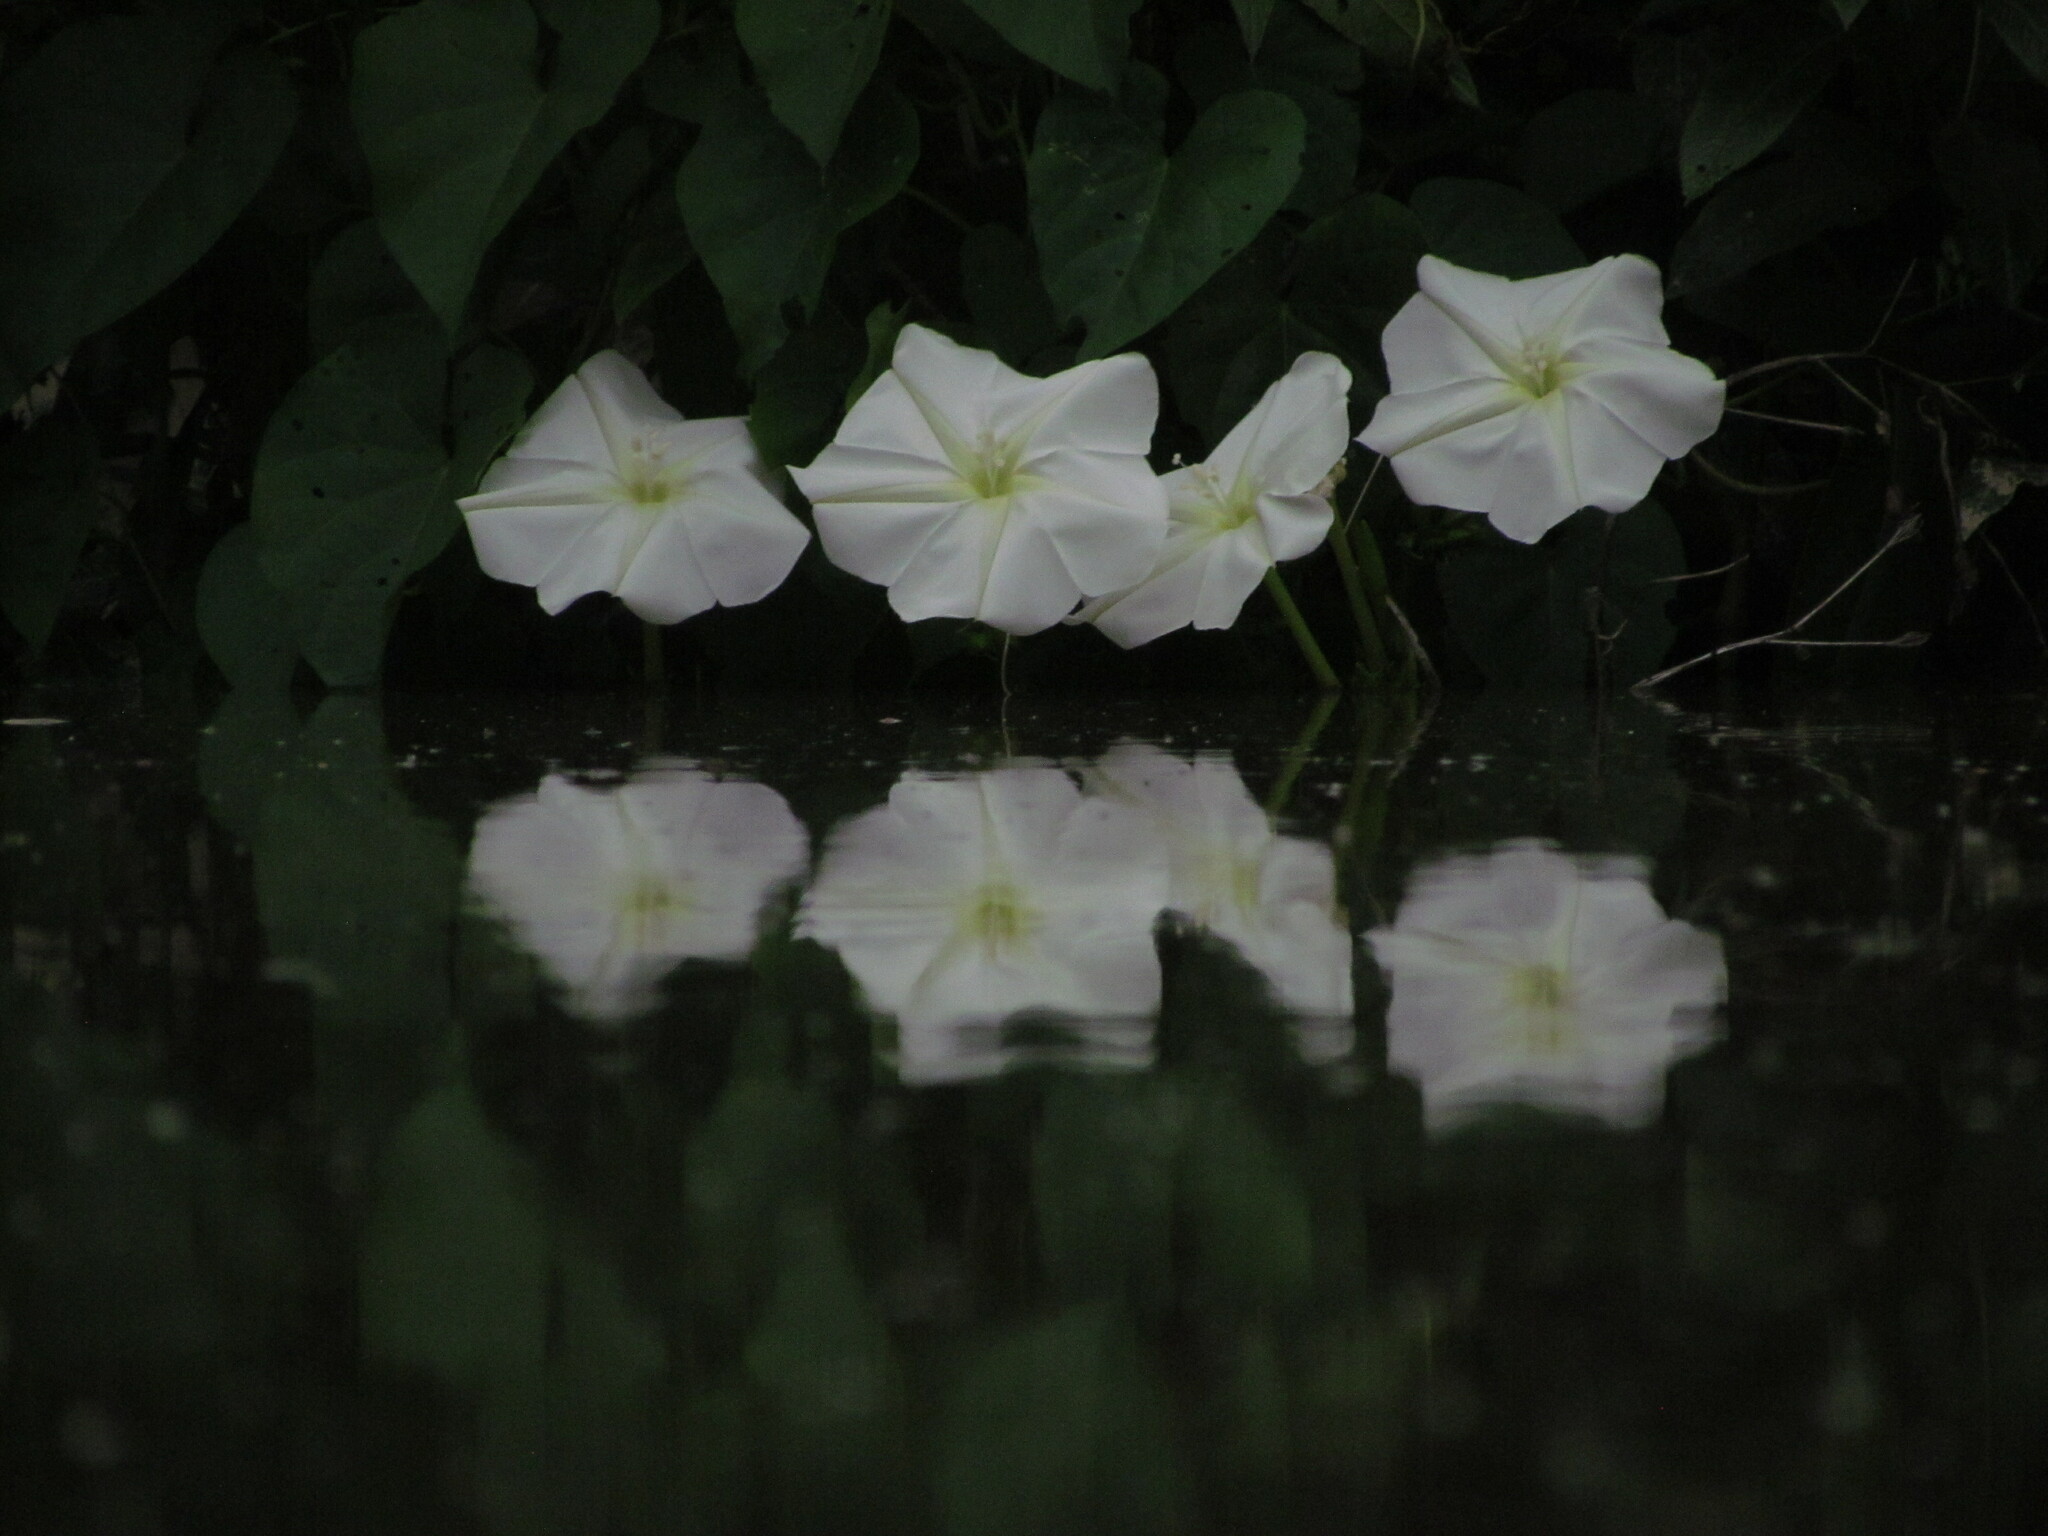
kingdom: Plantae
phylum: Tracheophyta
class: Magnoliopsida
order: Solanales
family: Convolvulaceae
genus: Ipomoea
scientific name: Ipomoea alba
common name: Moonflower
